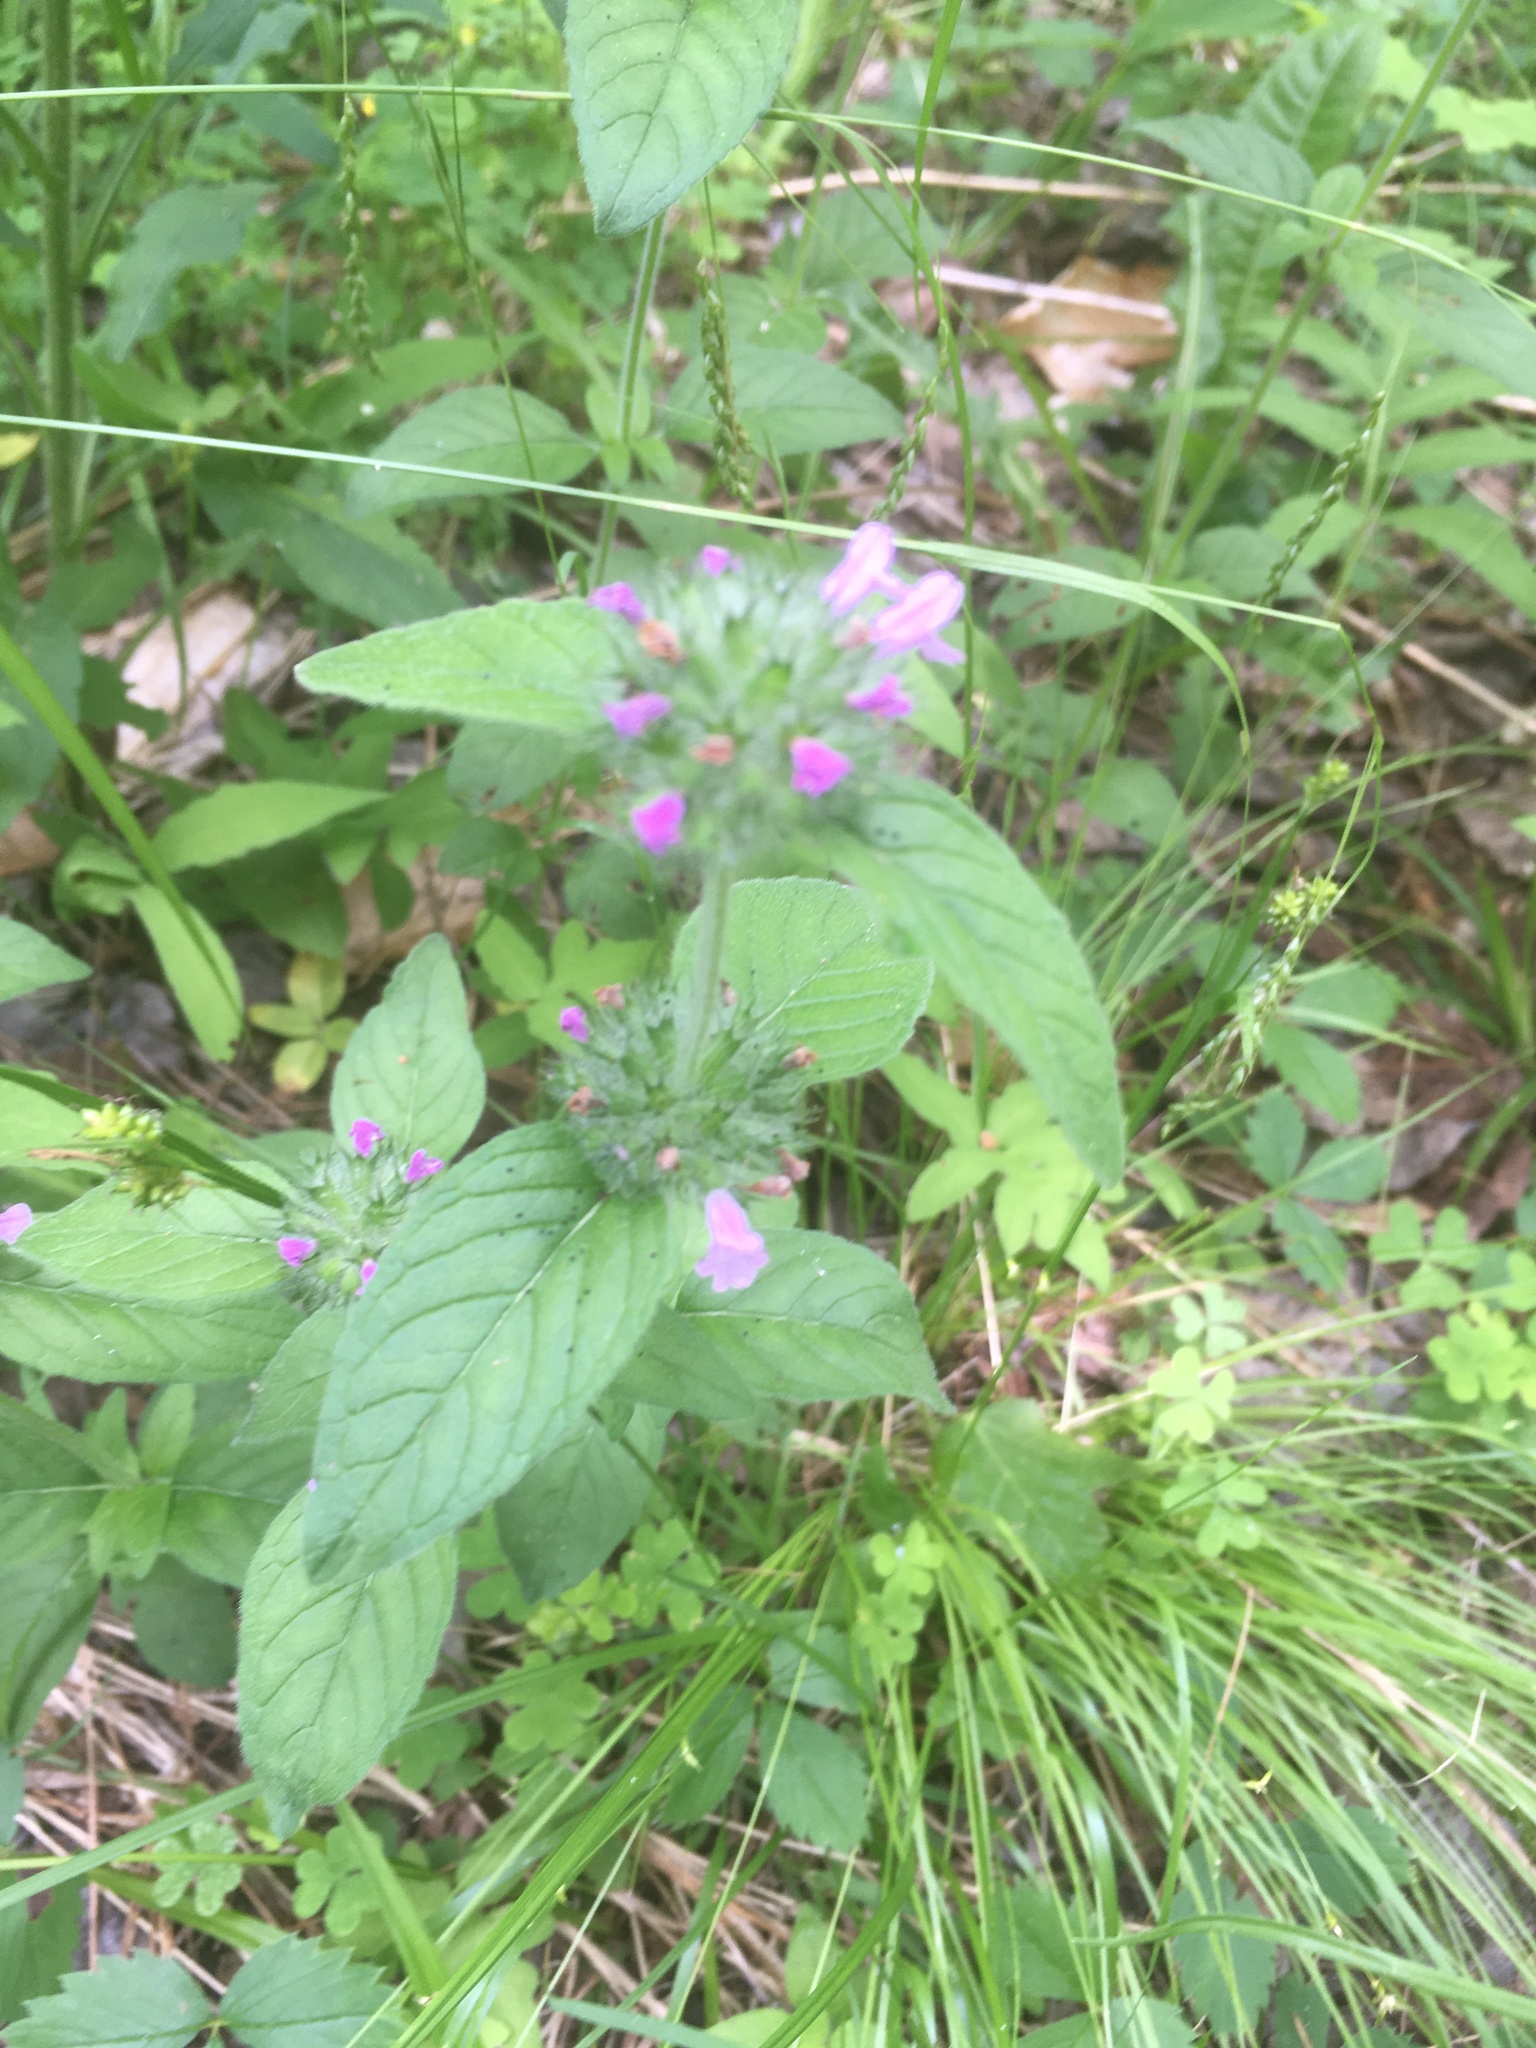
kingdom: Plantae
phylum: Tracheophyta
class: Magnoliopsida
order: Lamiales
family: Lamiaceae
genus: Clinopodium
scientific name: Clinopodium vulgare
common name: Wild basil
